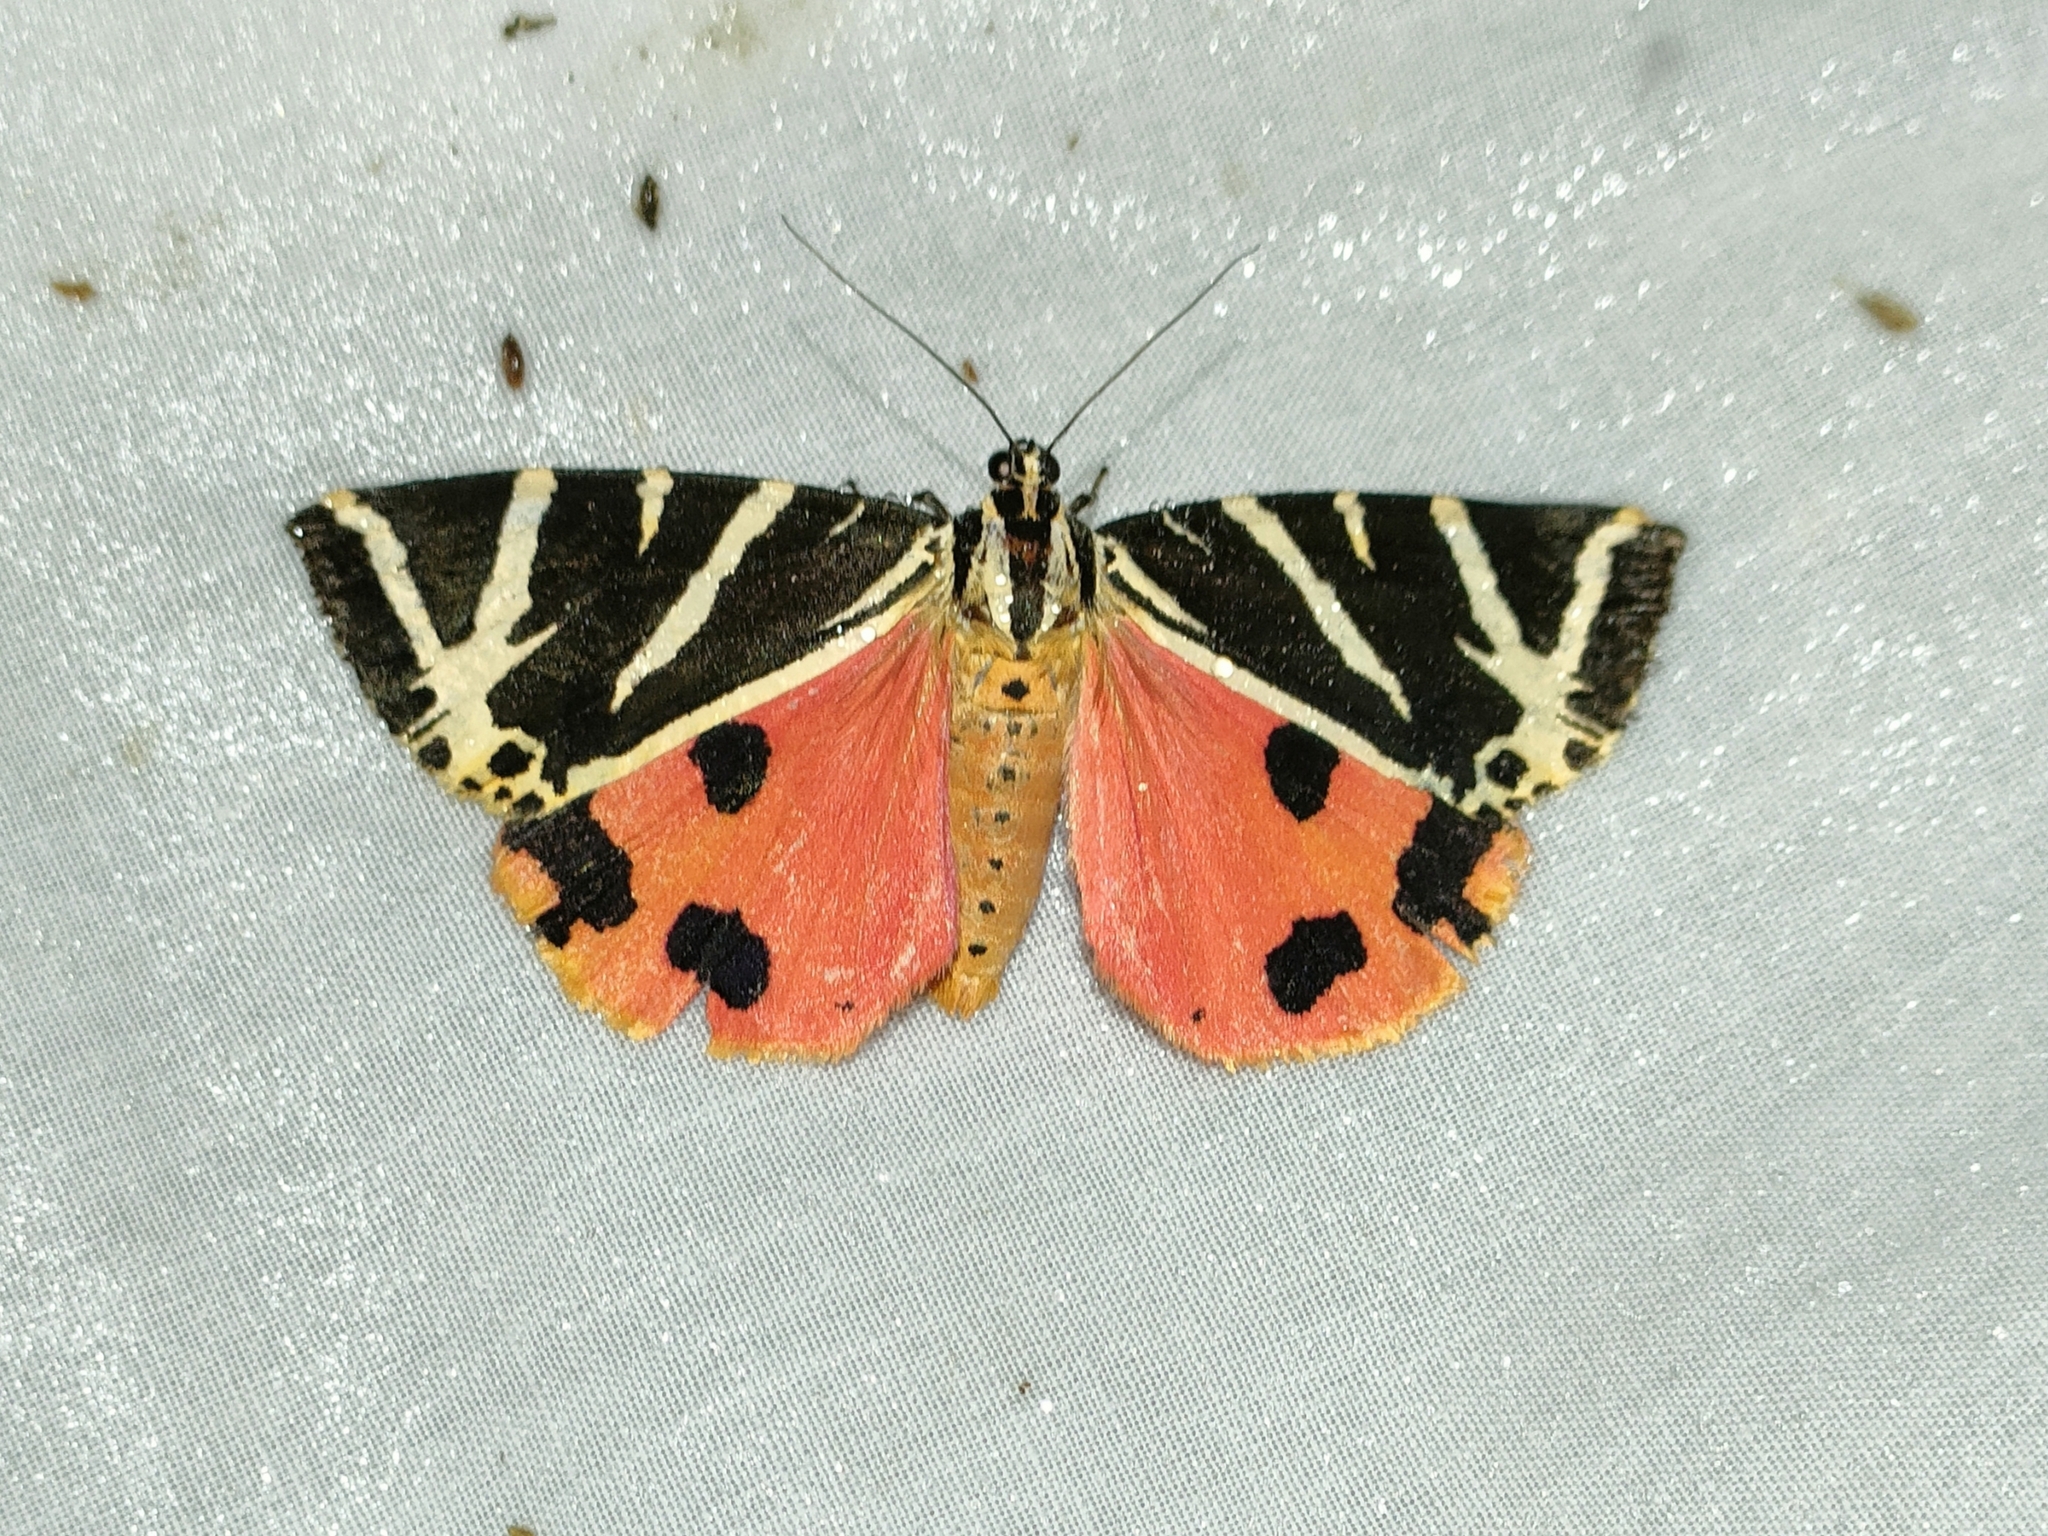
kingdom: Animalia
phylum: Arthropoda
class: Insecta
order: Lepidoptera
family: Erebidae
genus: Euplagia
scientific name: Euplagia quadripunctaria
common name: Jersey tiger
